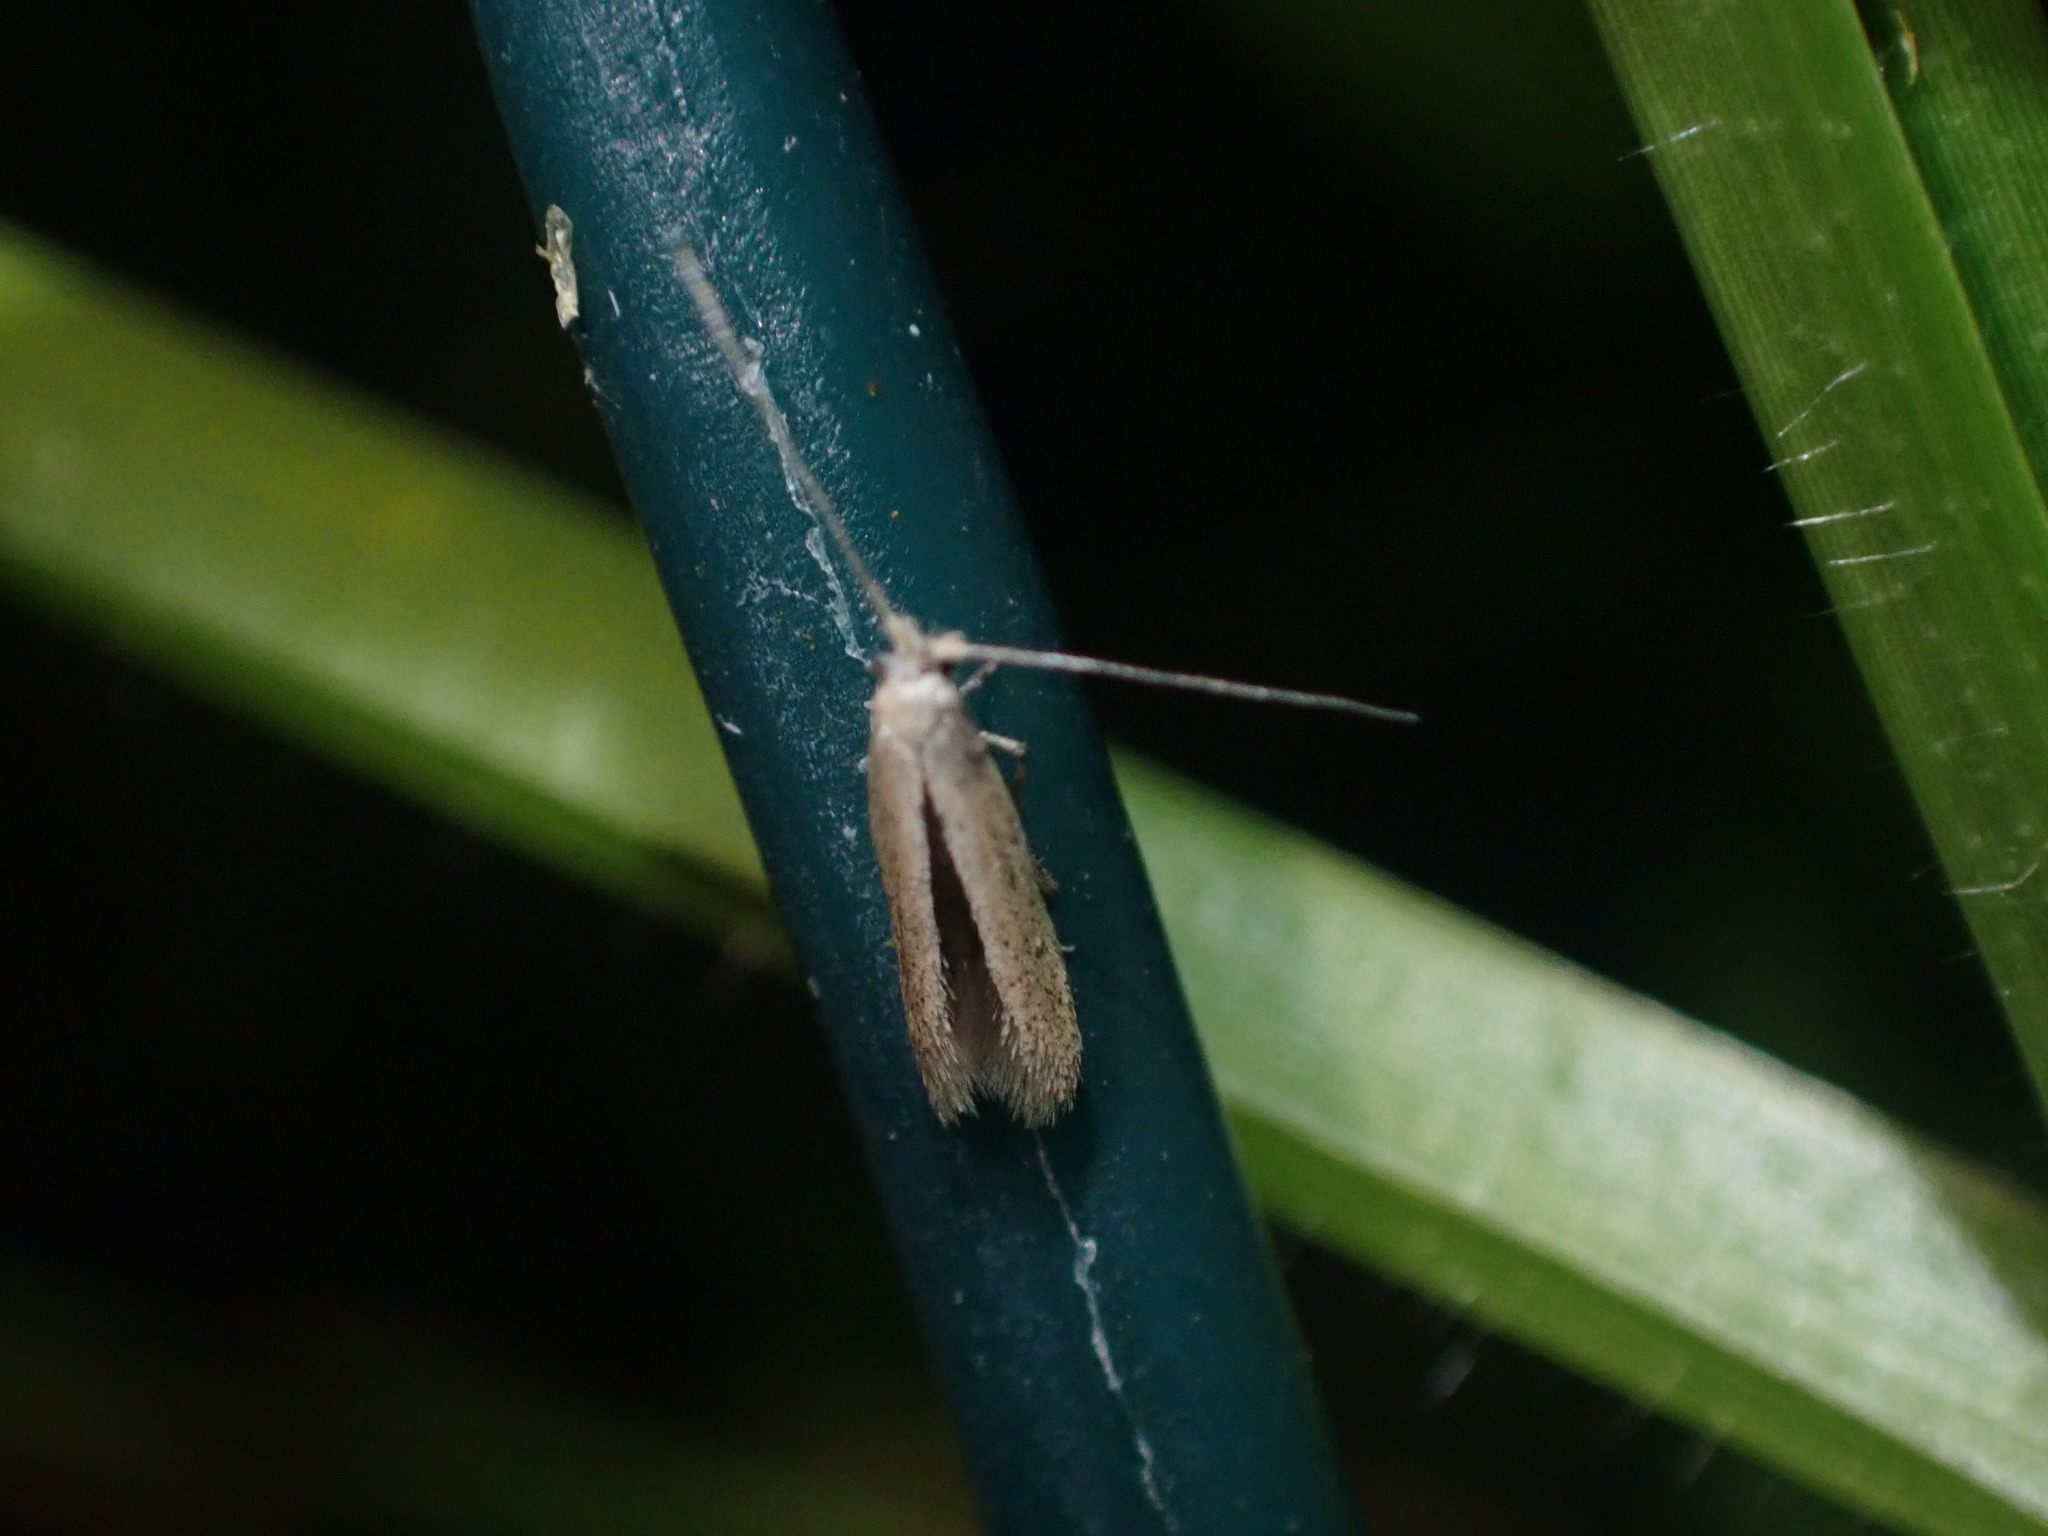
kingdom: Animalia
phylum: Arthropoda
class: Insecta
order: Lepidoptera
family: Bedelliidae
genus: Bedellia
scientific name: Bedellia somnulentella
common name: Morning-glory leafminer moth
